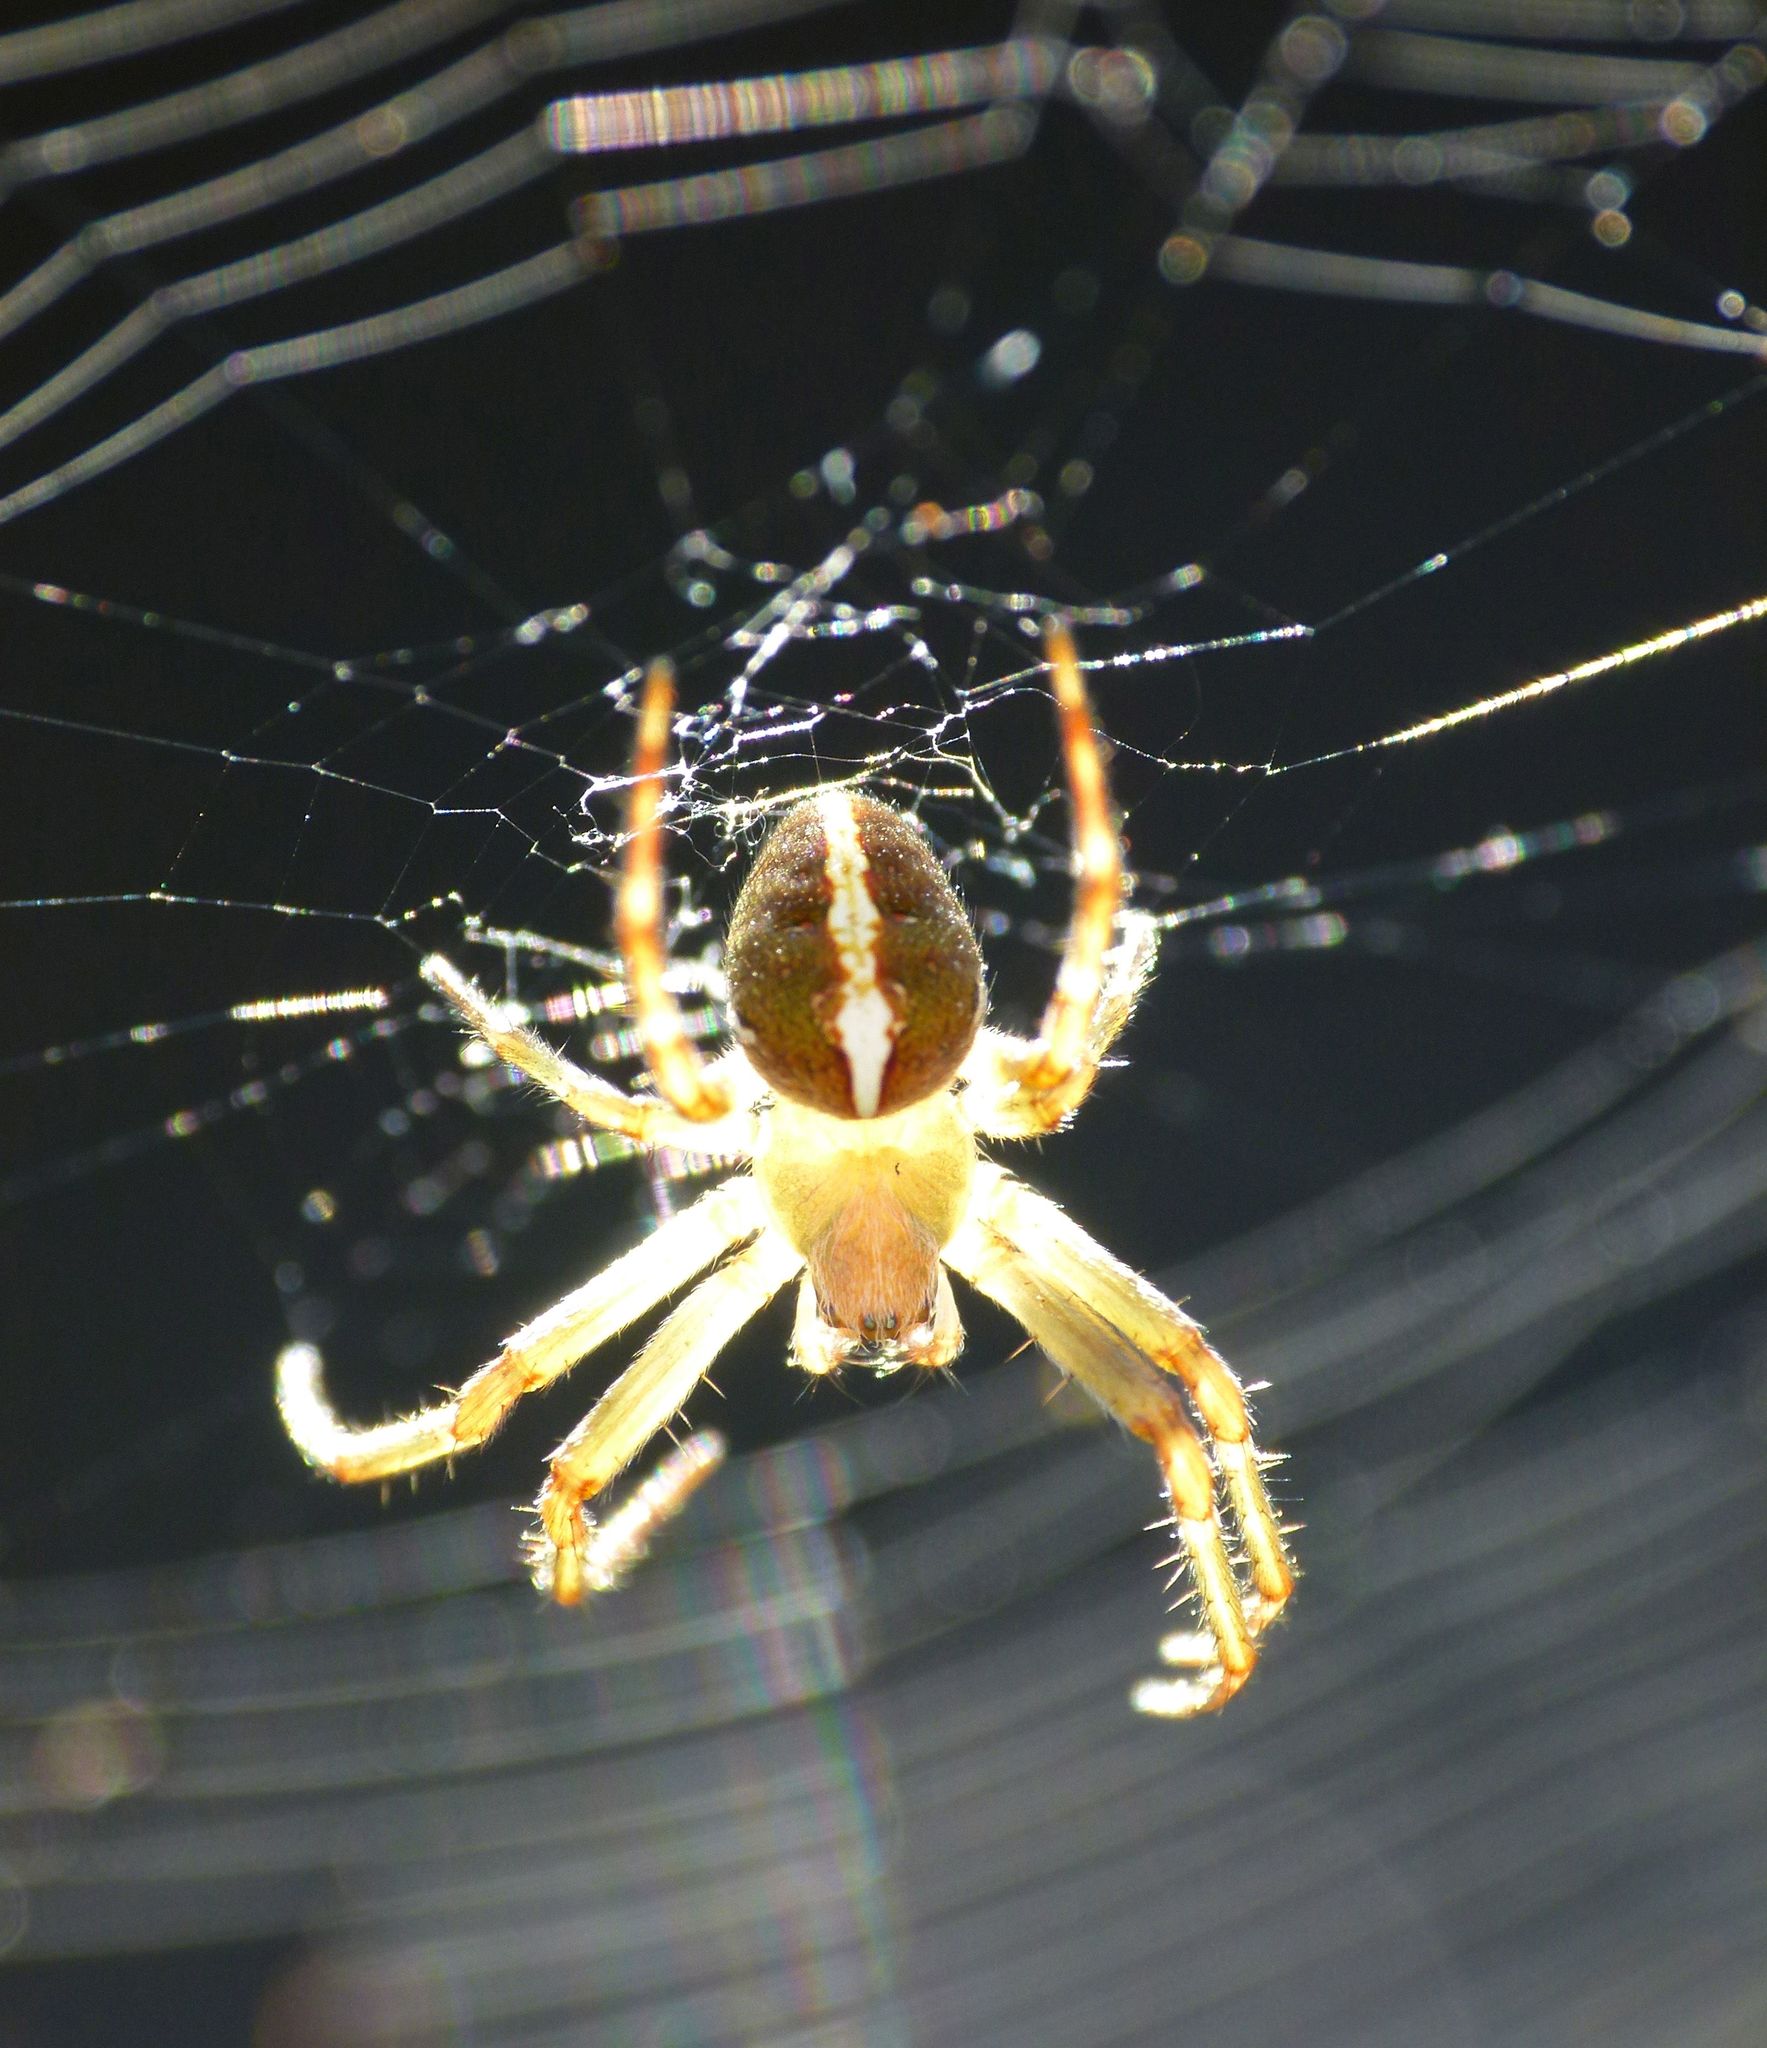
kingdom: Animalia
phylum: Arthropoda
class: Arachnida
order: Araneae
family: Araneidae
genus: Colaranea
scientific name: Colaranea verutum
